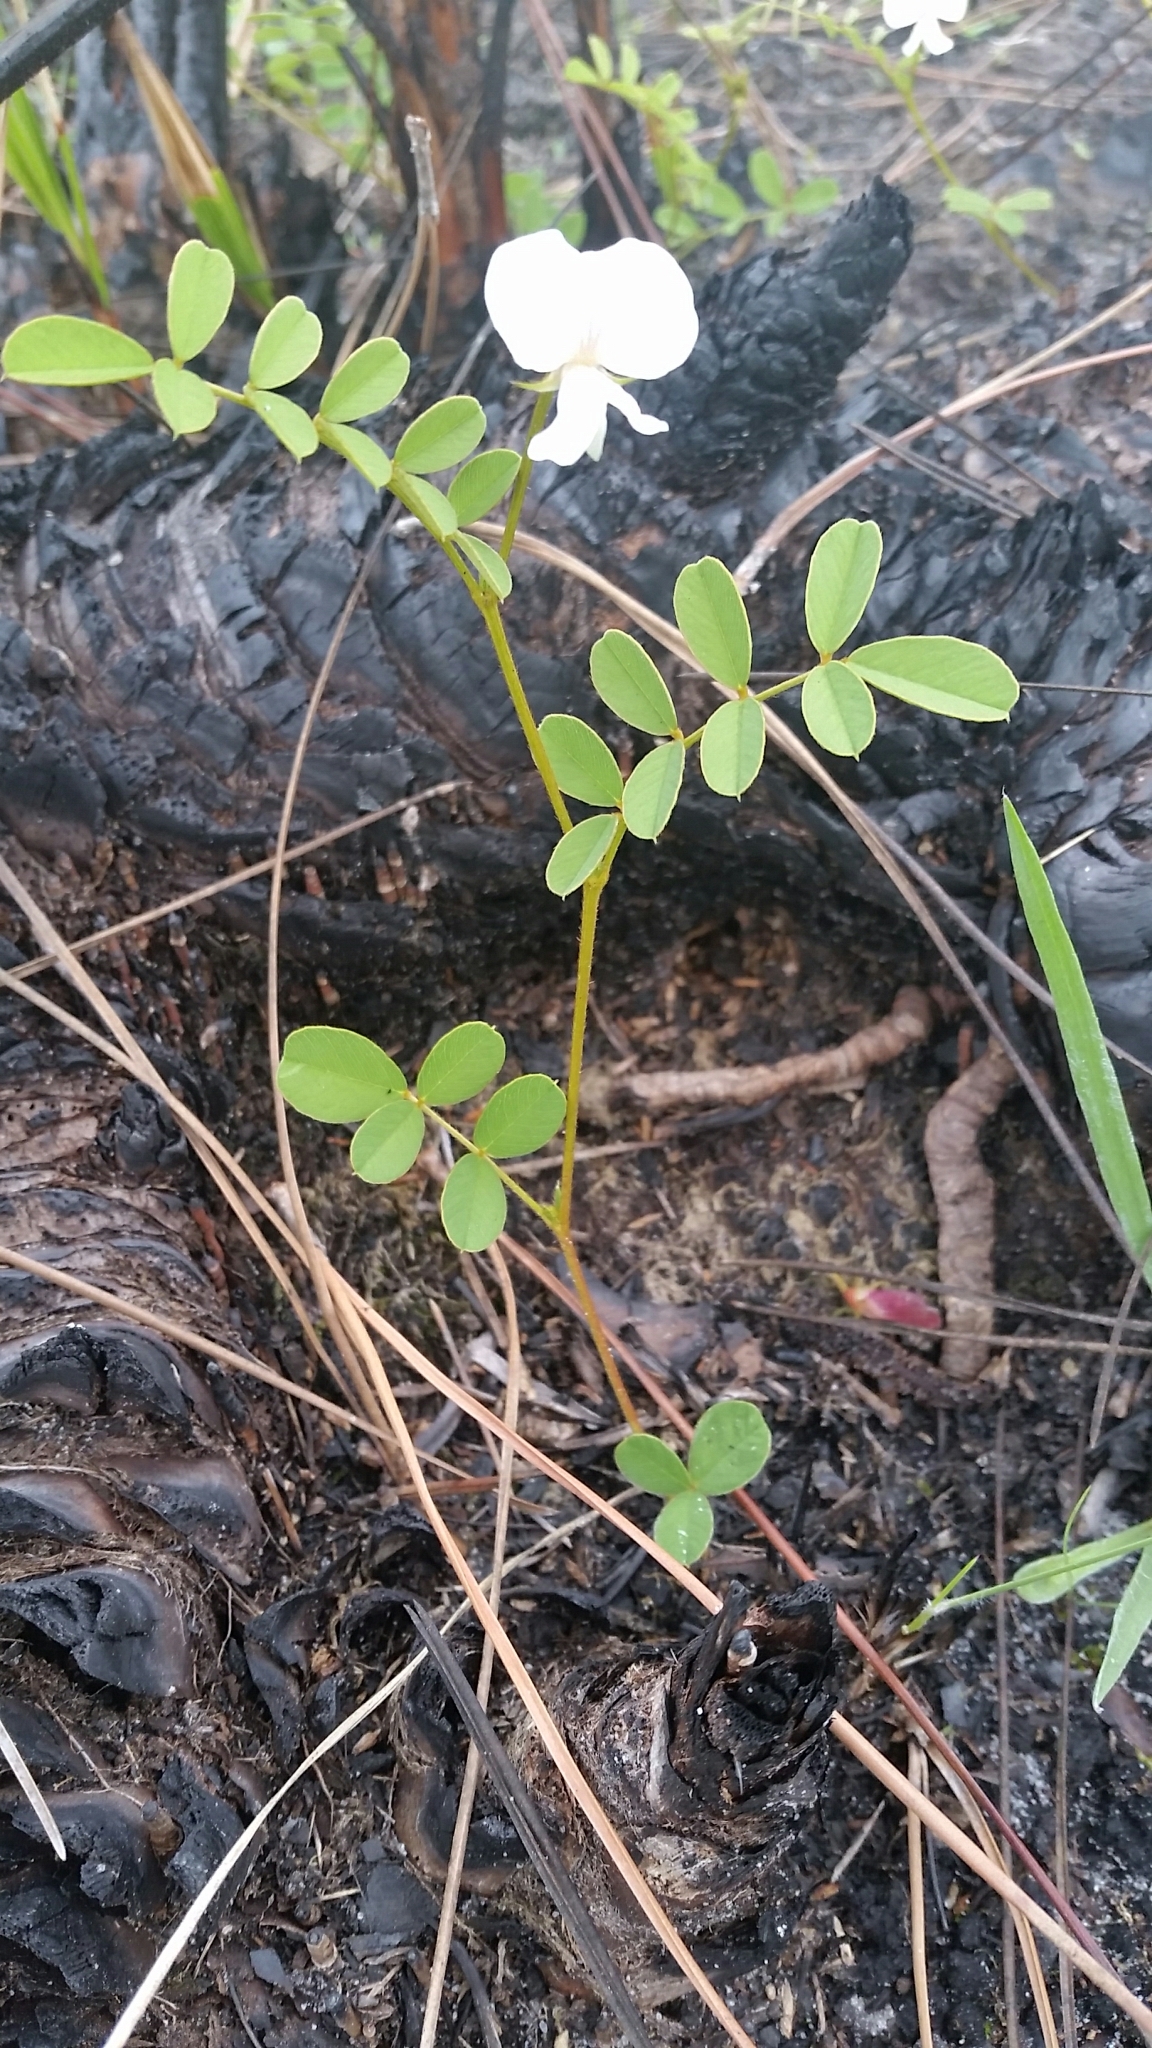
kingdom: Plantae
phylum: Tracheophyta
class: Magnoliopsida
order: Fabales
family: Fabaceae
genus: Tephrosia
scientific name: Tephrosia rugelii
